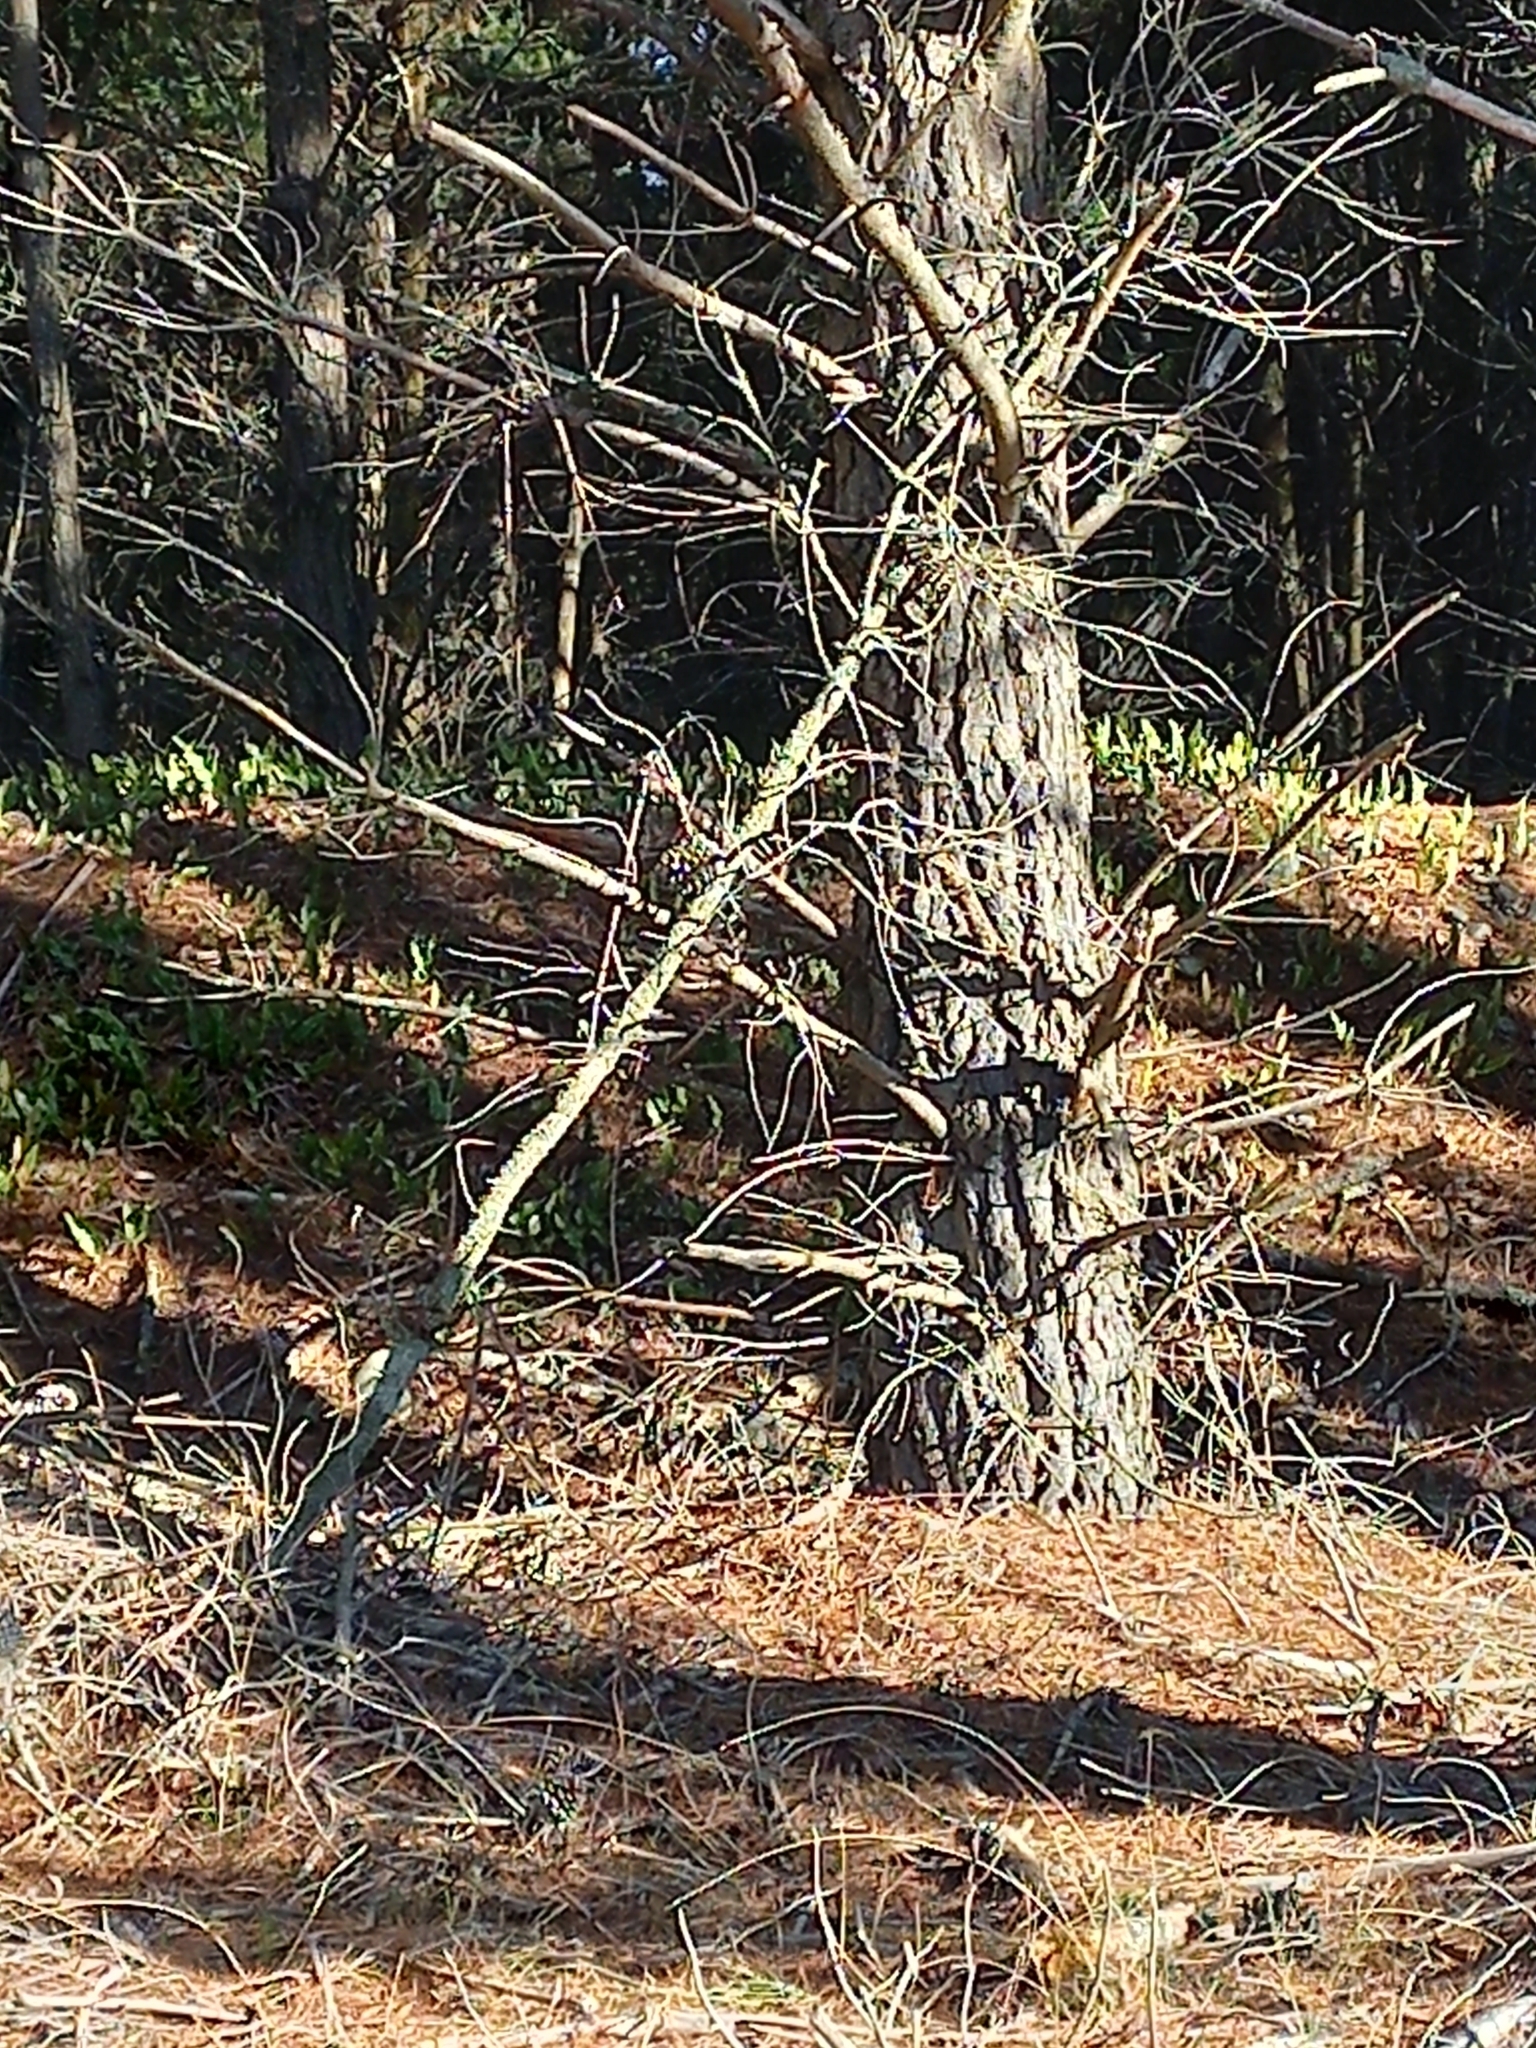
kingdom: Plantae
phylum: Tracheophyta
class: Polypodiopsida
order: Polypodiales
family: Polypodiaceae
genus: Lecanopteris
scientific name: Lecanopteris pustulata
